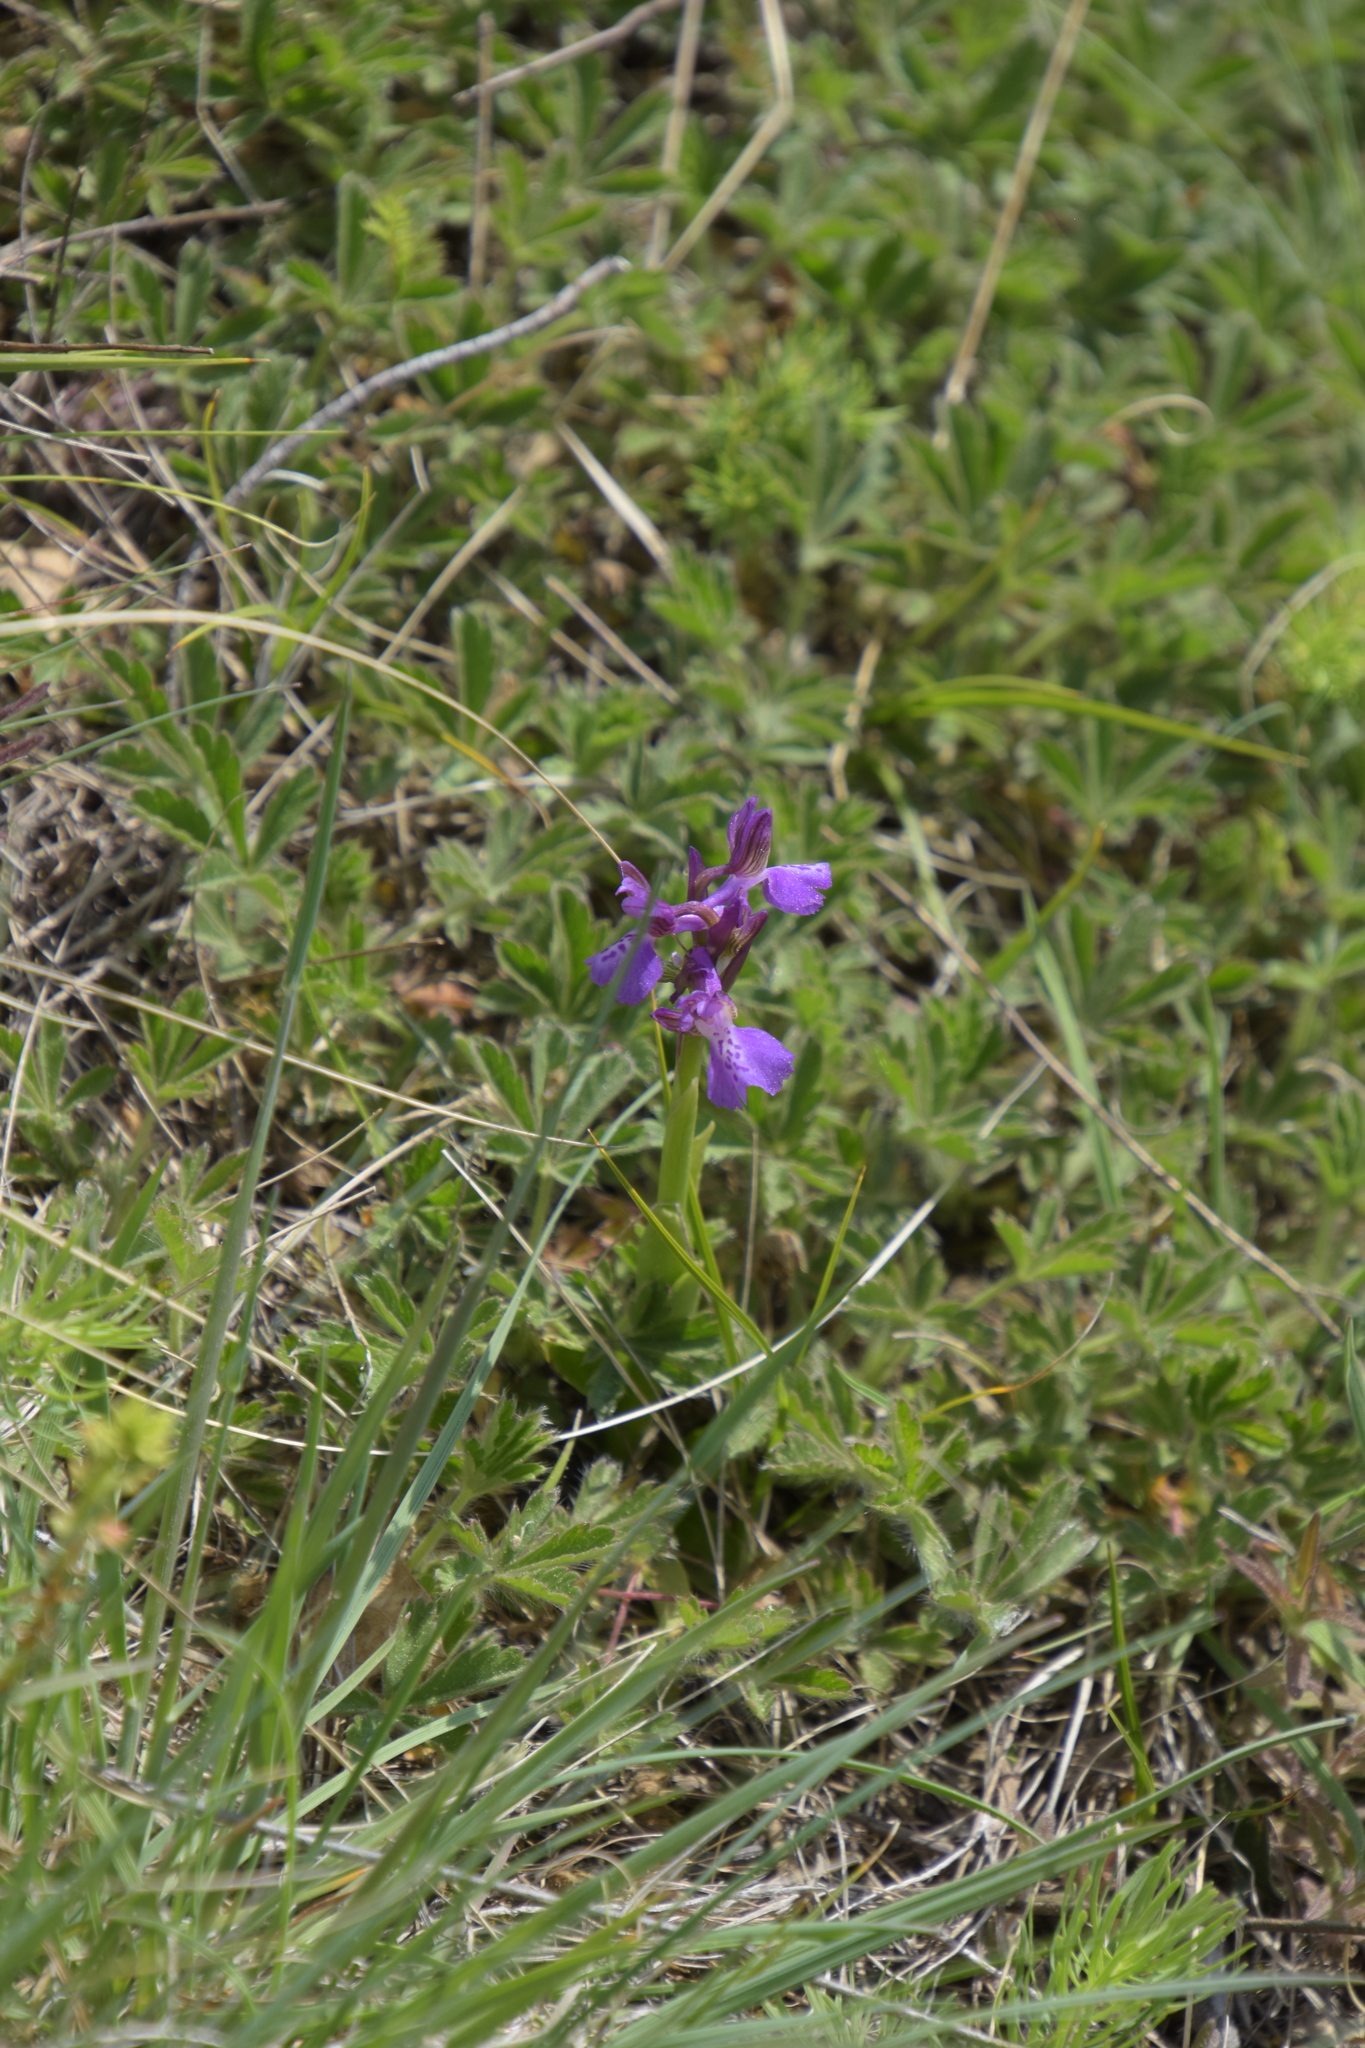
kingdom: Plantae
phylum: Tracheophyta
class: Liliopsida
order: Asparagales
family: Orchidaceae
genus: Anacamptis
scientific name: Anacamptis morio
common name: Green-winged orchid
